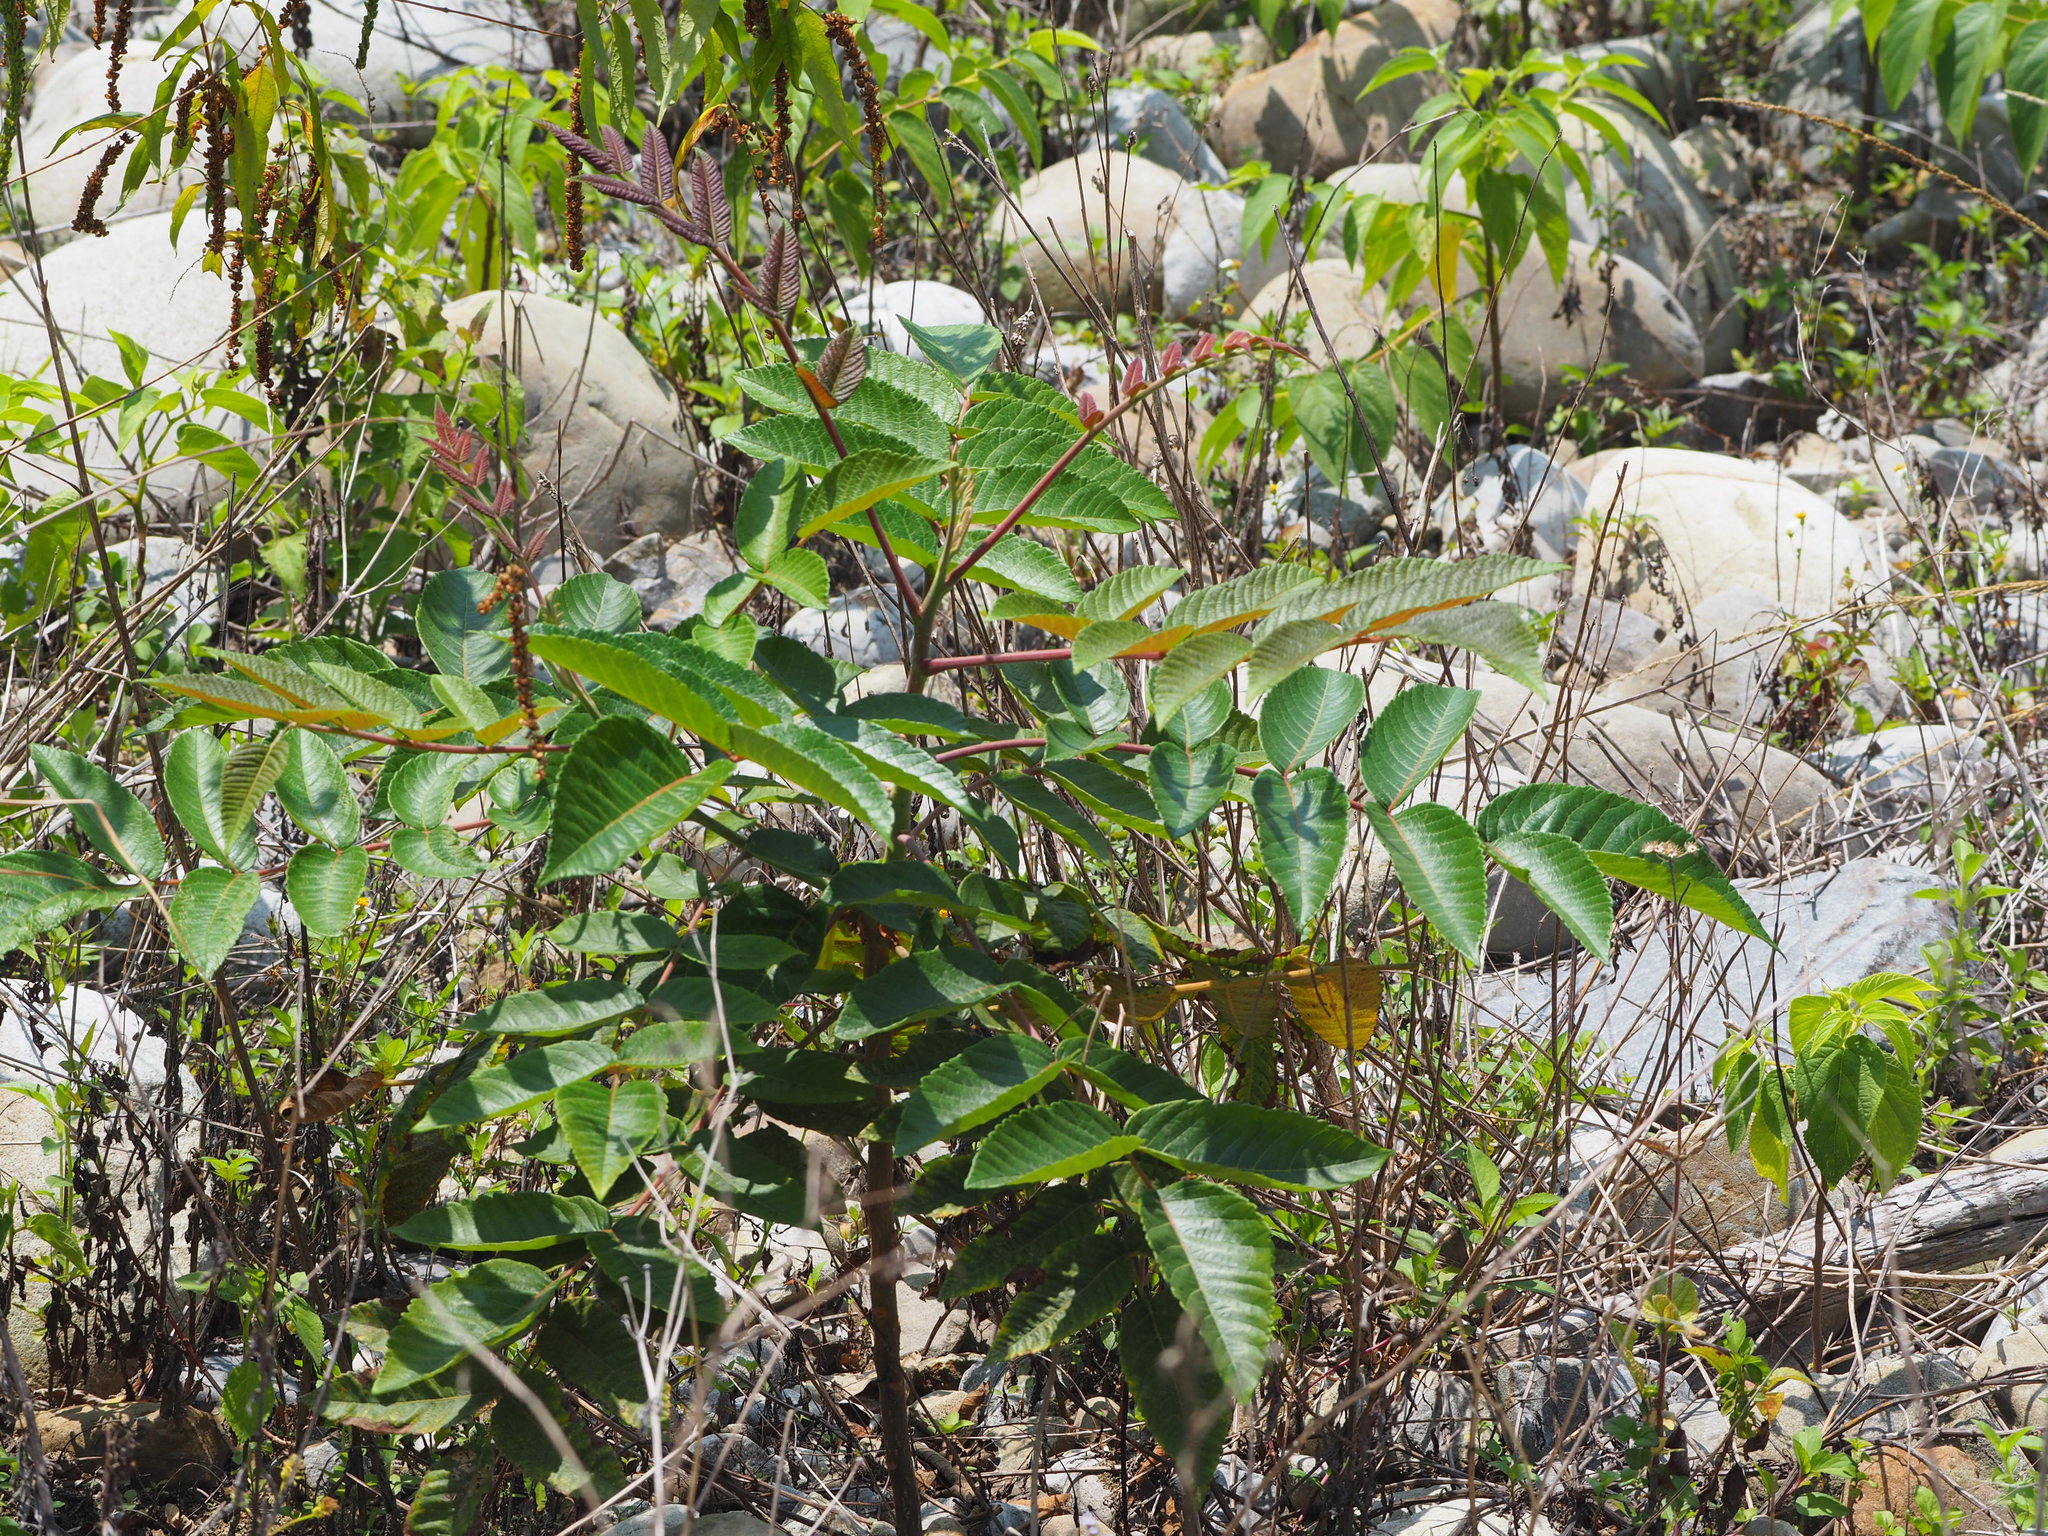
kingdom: Plantae
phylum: Tracheophyta
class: Magnoliopsida
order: Sapindales
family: Anacardiaceae
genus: Rhus
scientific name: Rhus chinensis
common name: Chinese gall
